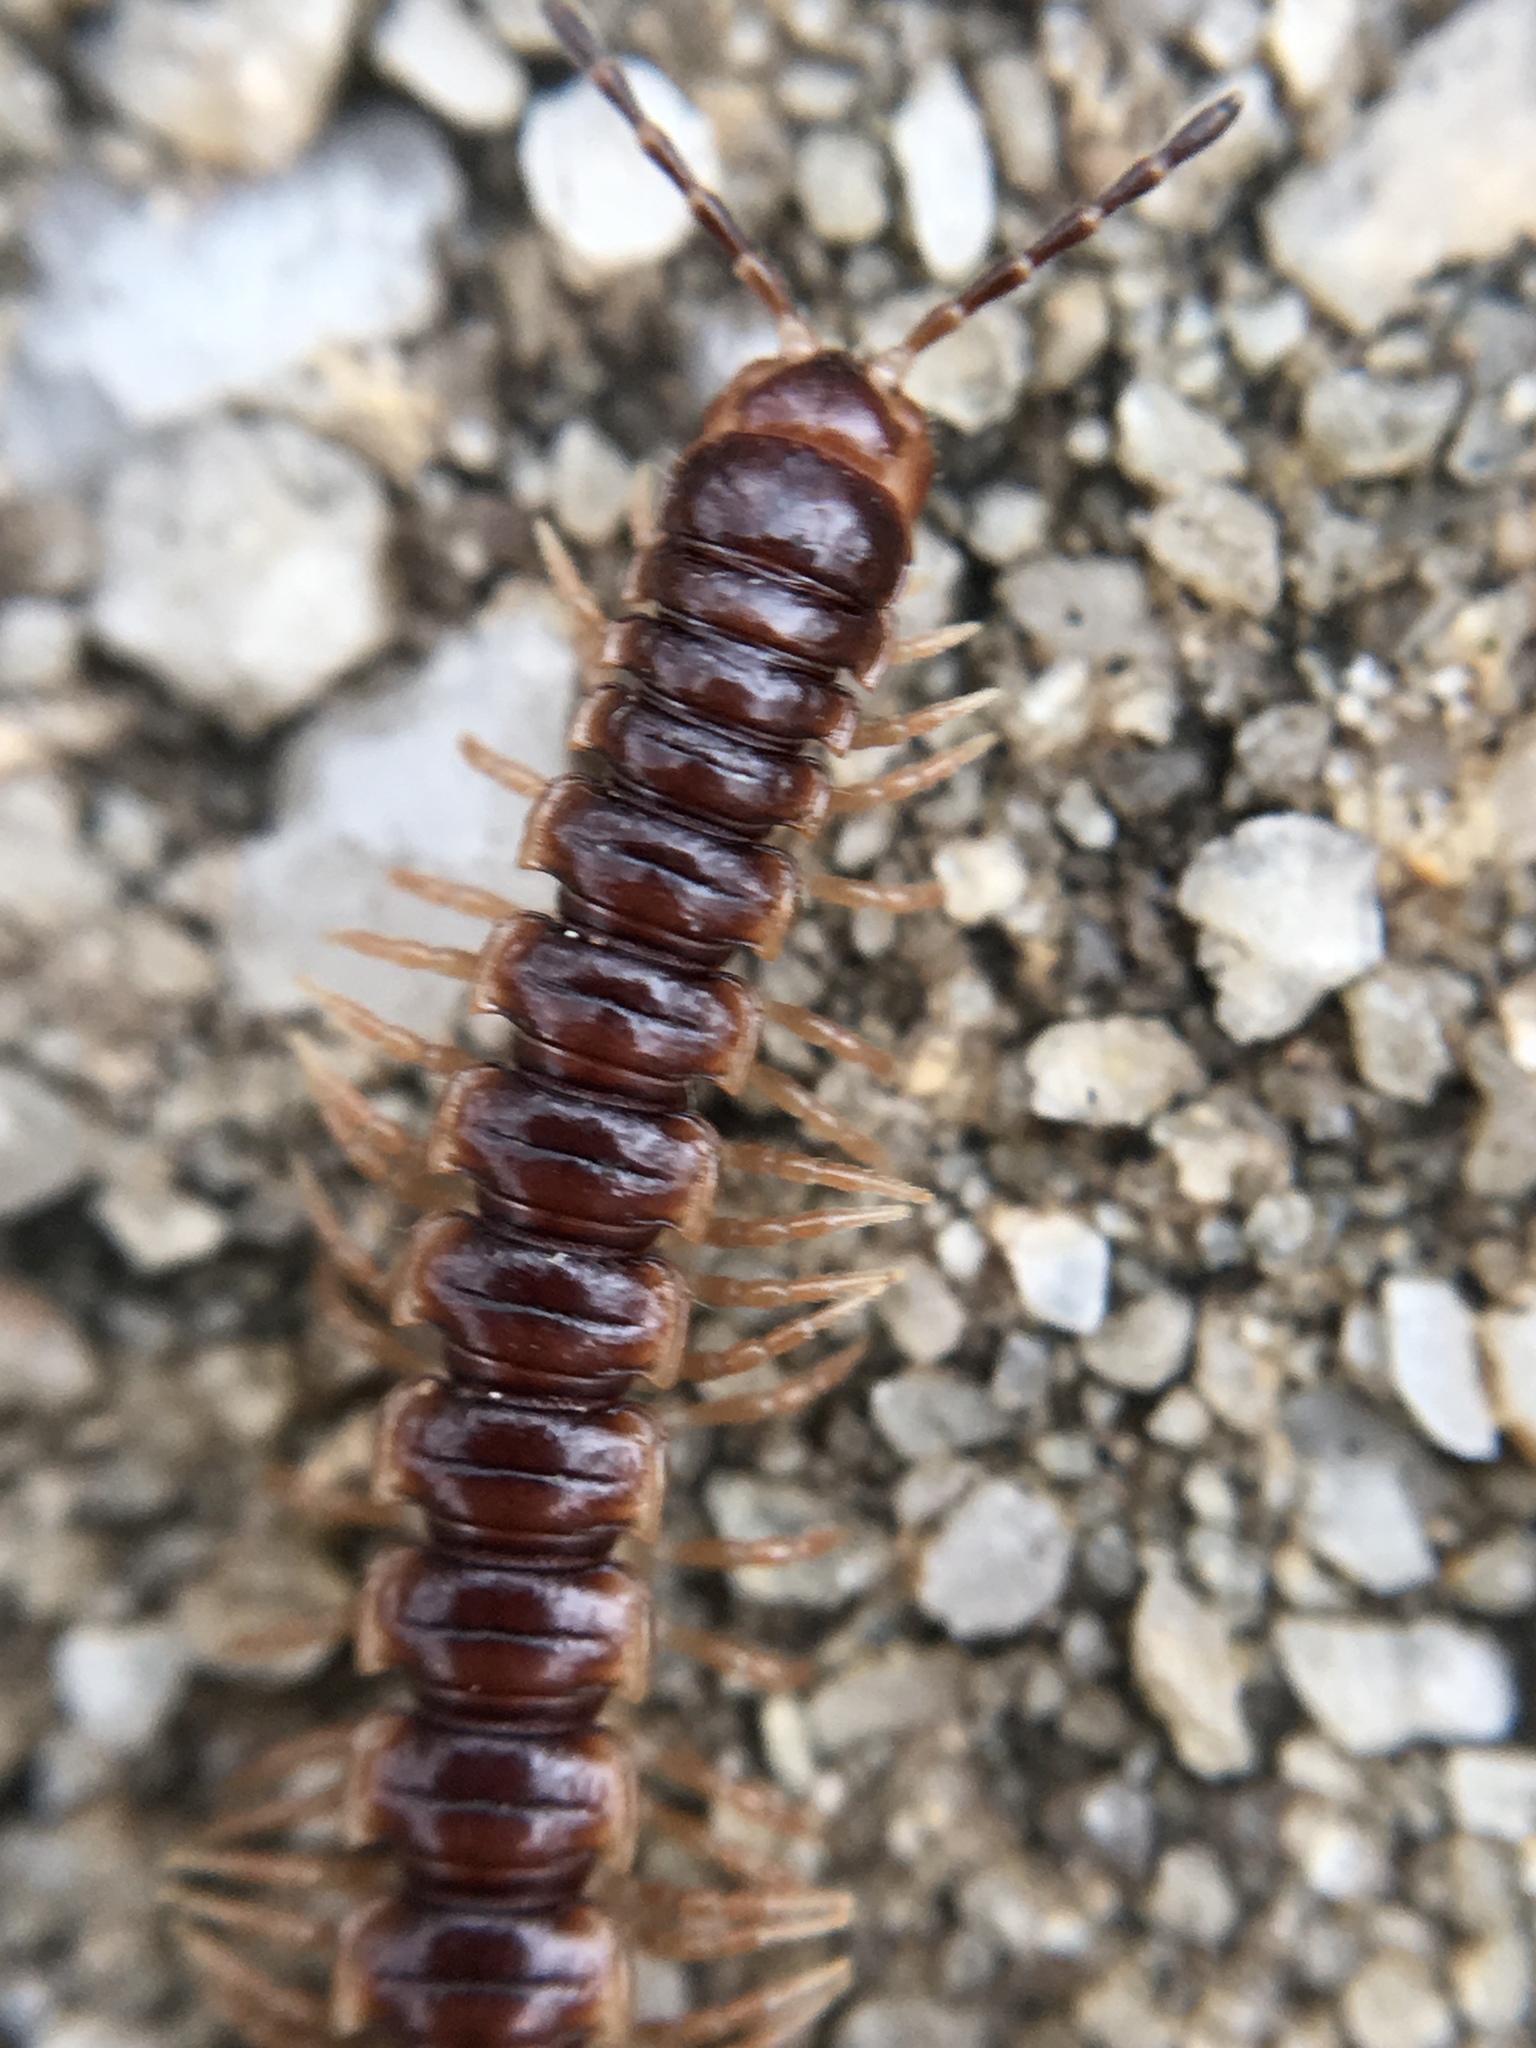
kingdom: Animalia
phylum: Arthropoda
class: Diplopoda
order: Polydesmida
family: Paradoxosomatidae
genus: Oxidus
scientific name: Oxidus gracilis
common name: Greenhouse millipede
